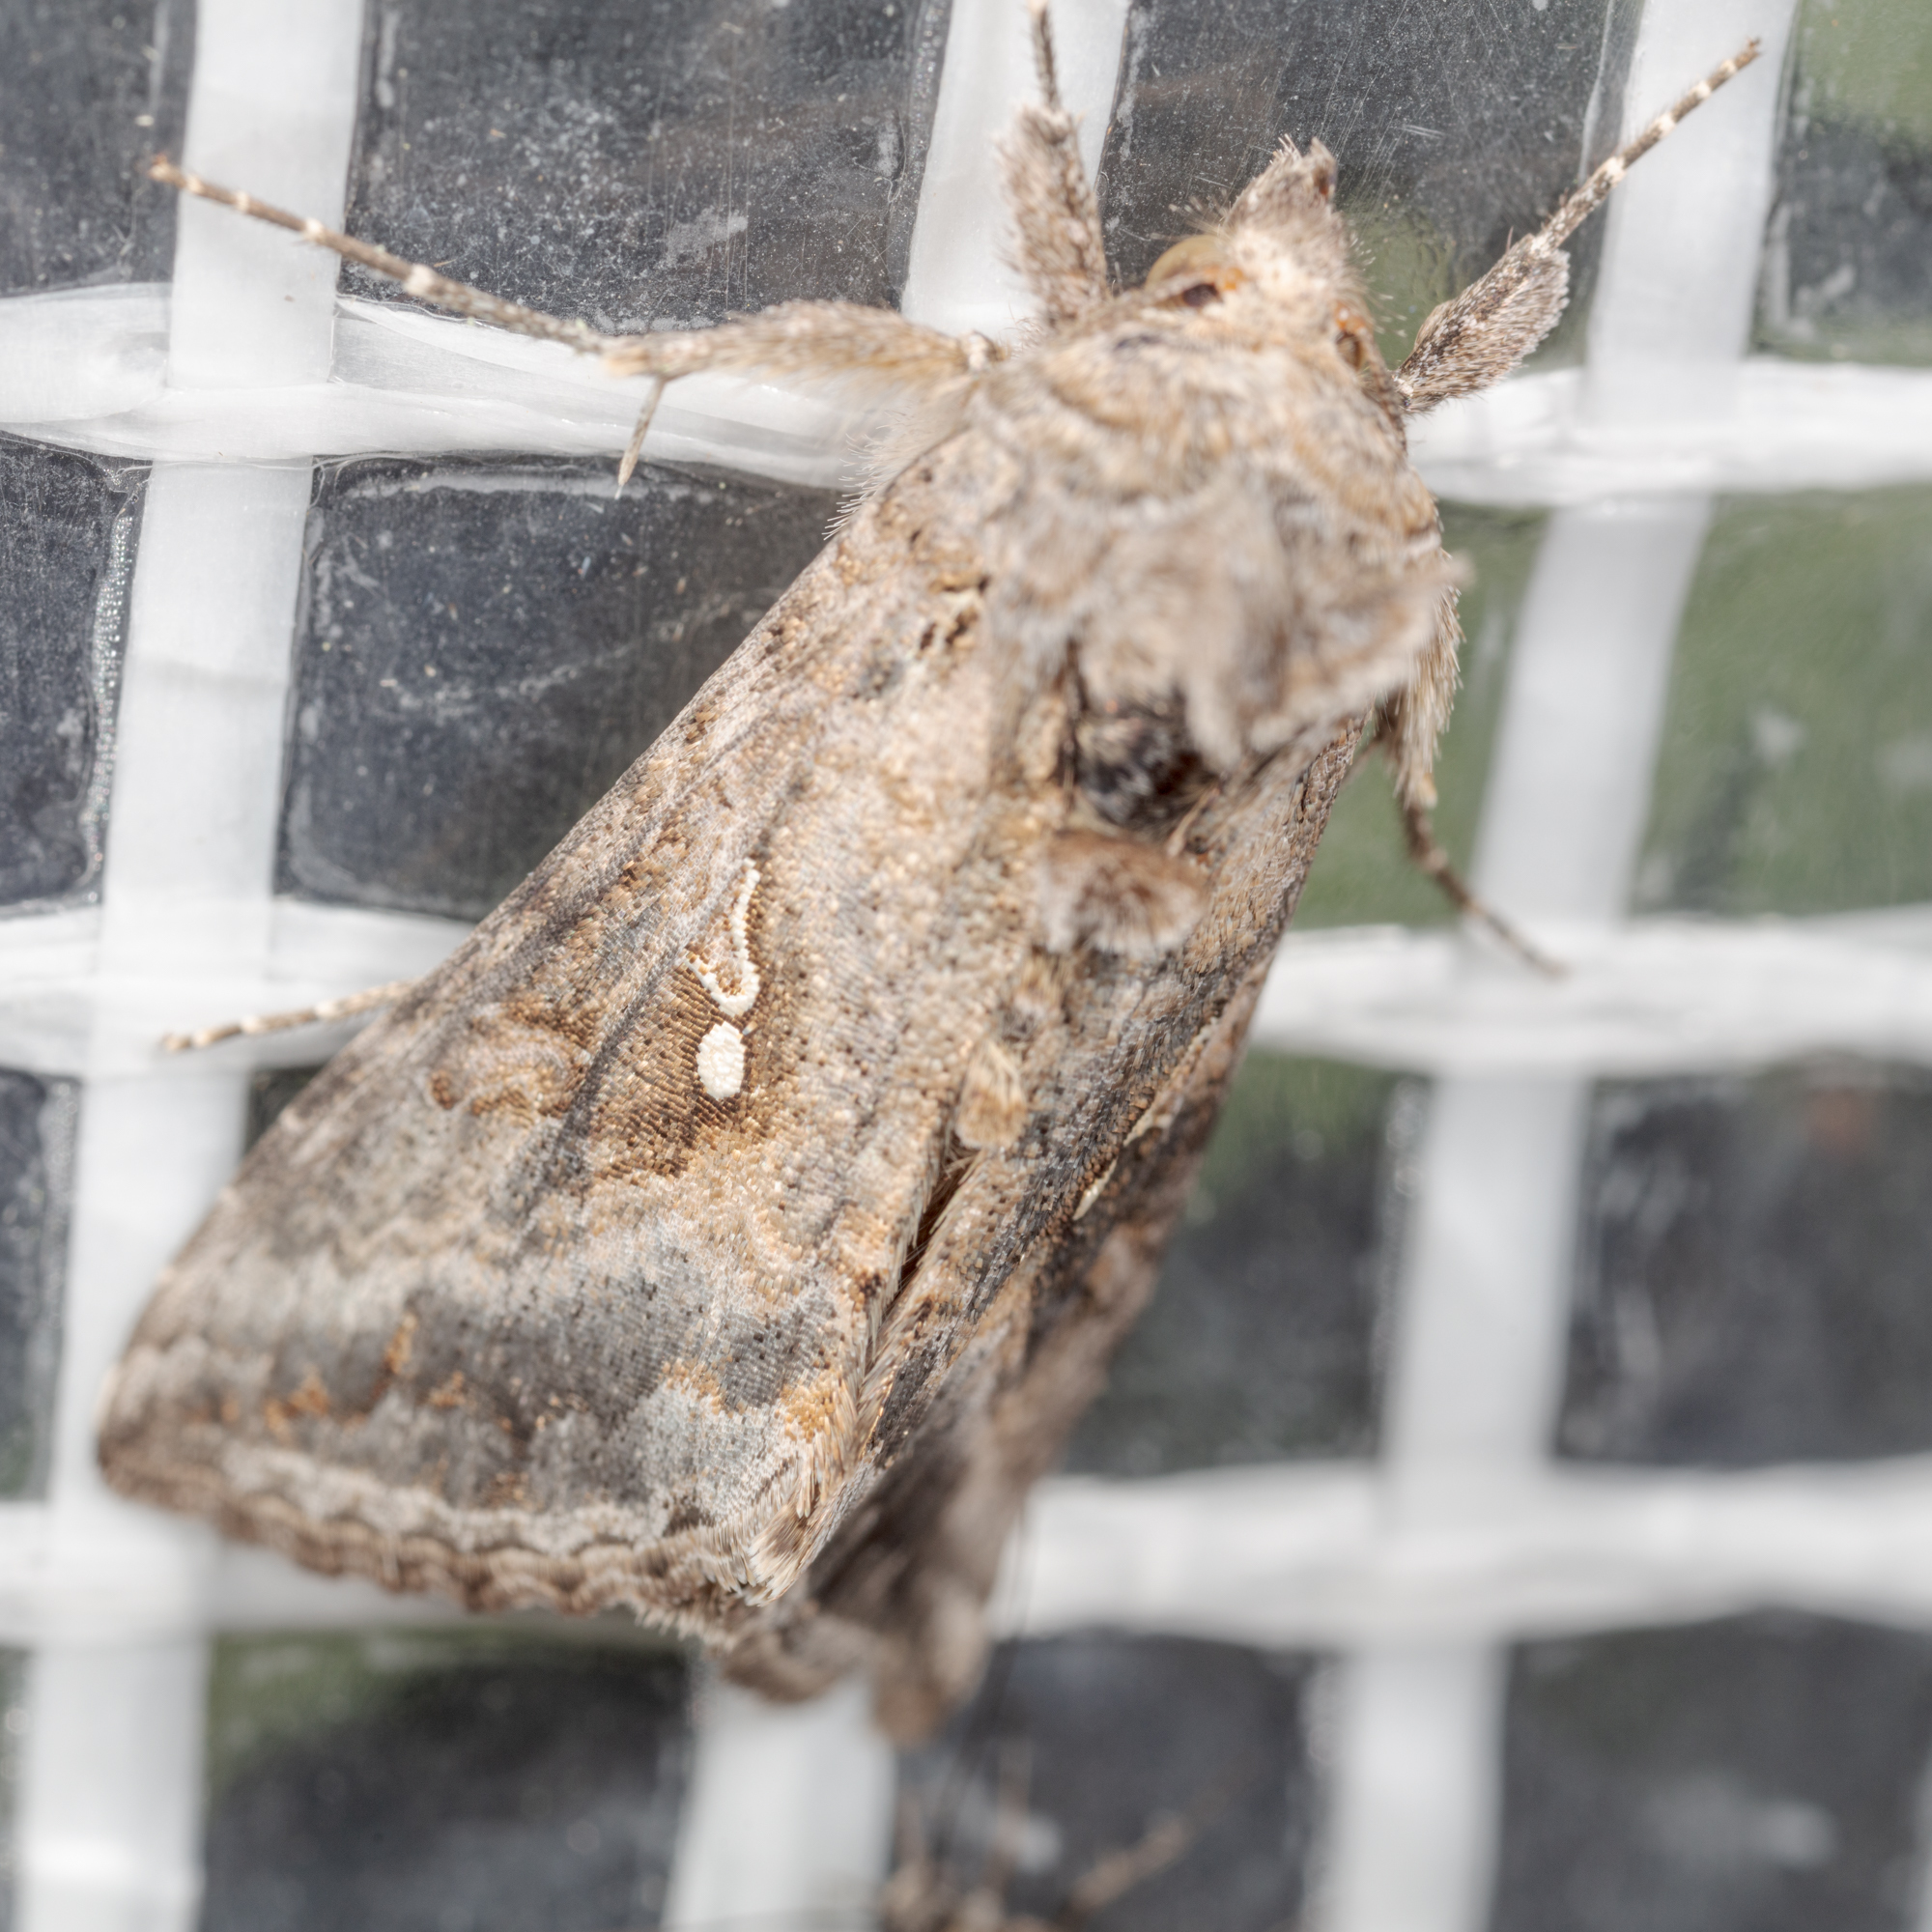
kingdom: Animalia
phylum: Arthropoda
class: Insecta
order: Lepidoptera
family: Noctuidae
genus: Rachiplusia
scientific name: Rachiplusia ou
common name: Gray looper moth
